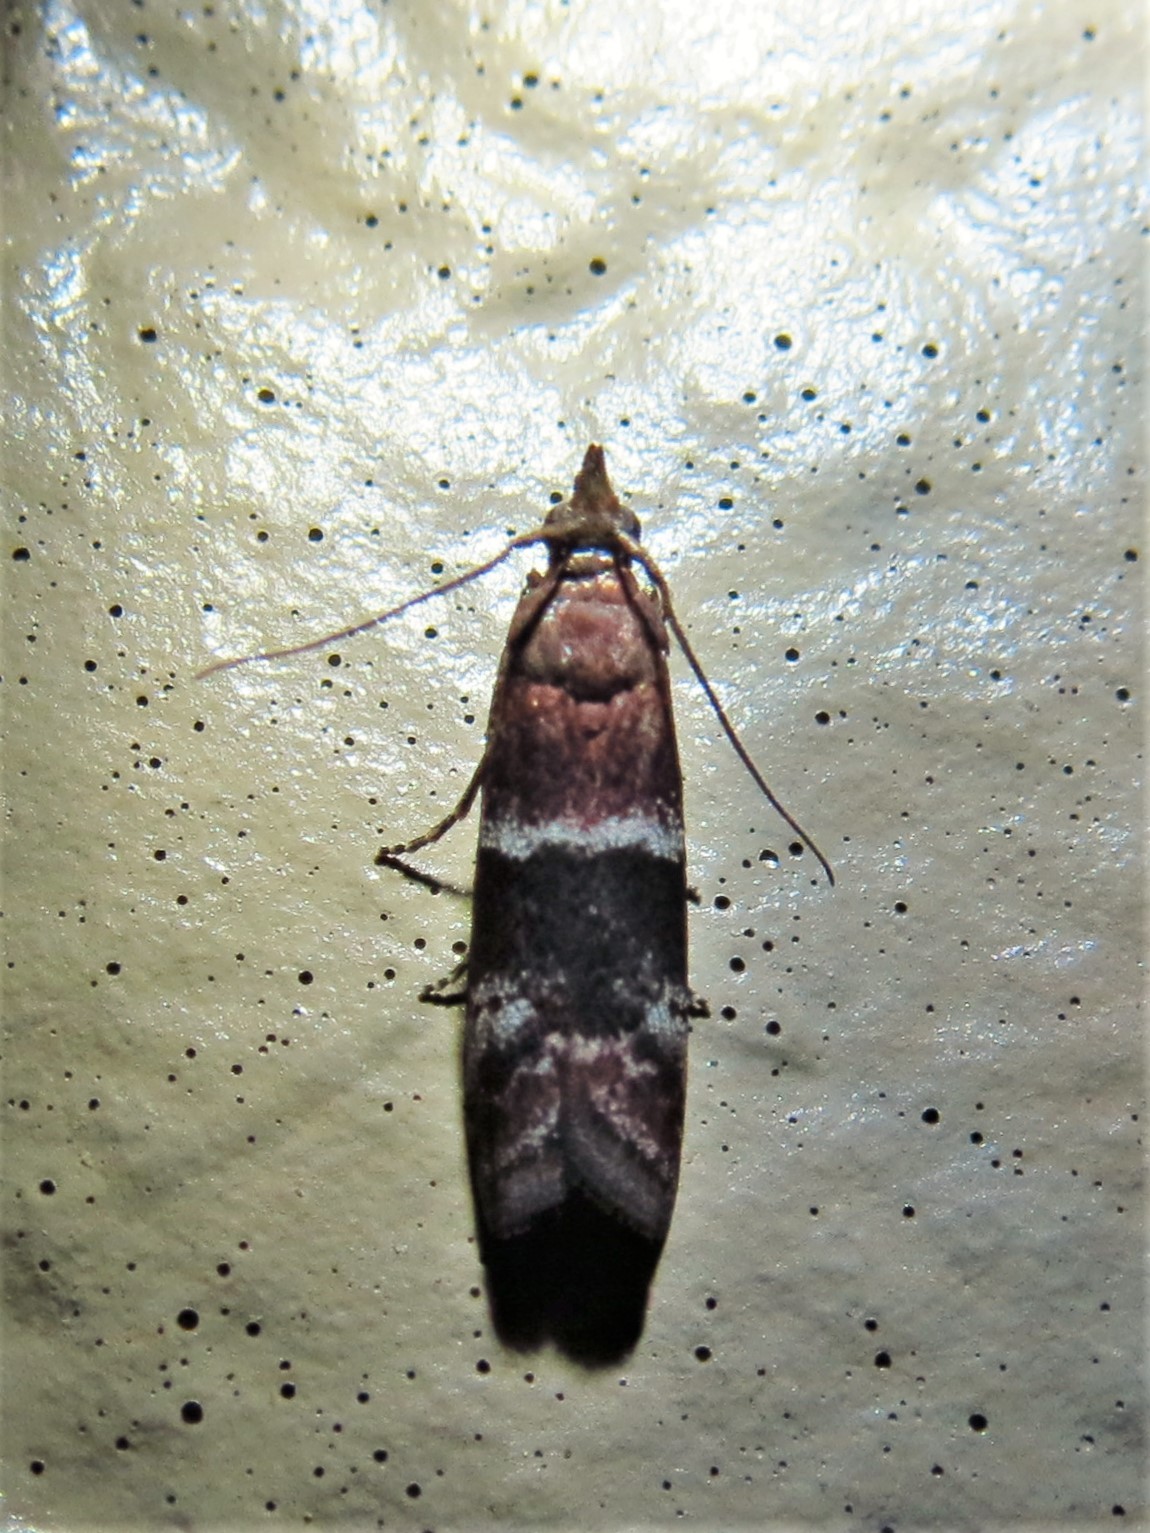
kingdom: Animalia
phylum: Arthropoda
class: Insecta
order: Lepidoptera
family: Pyralidae
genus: Moodna
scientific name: Moodna ostrinella
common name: Darker moodna moth
